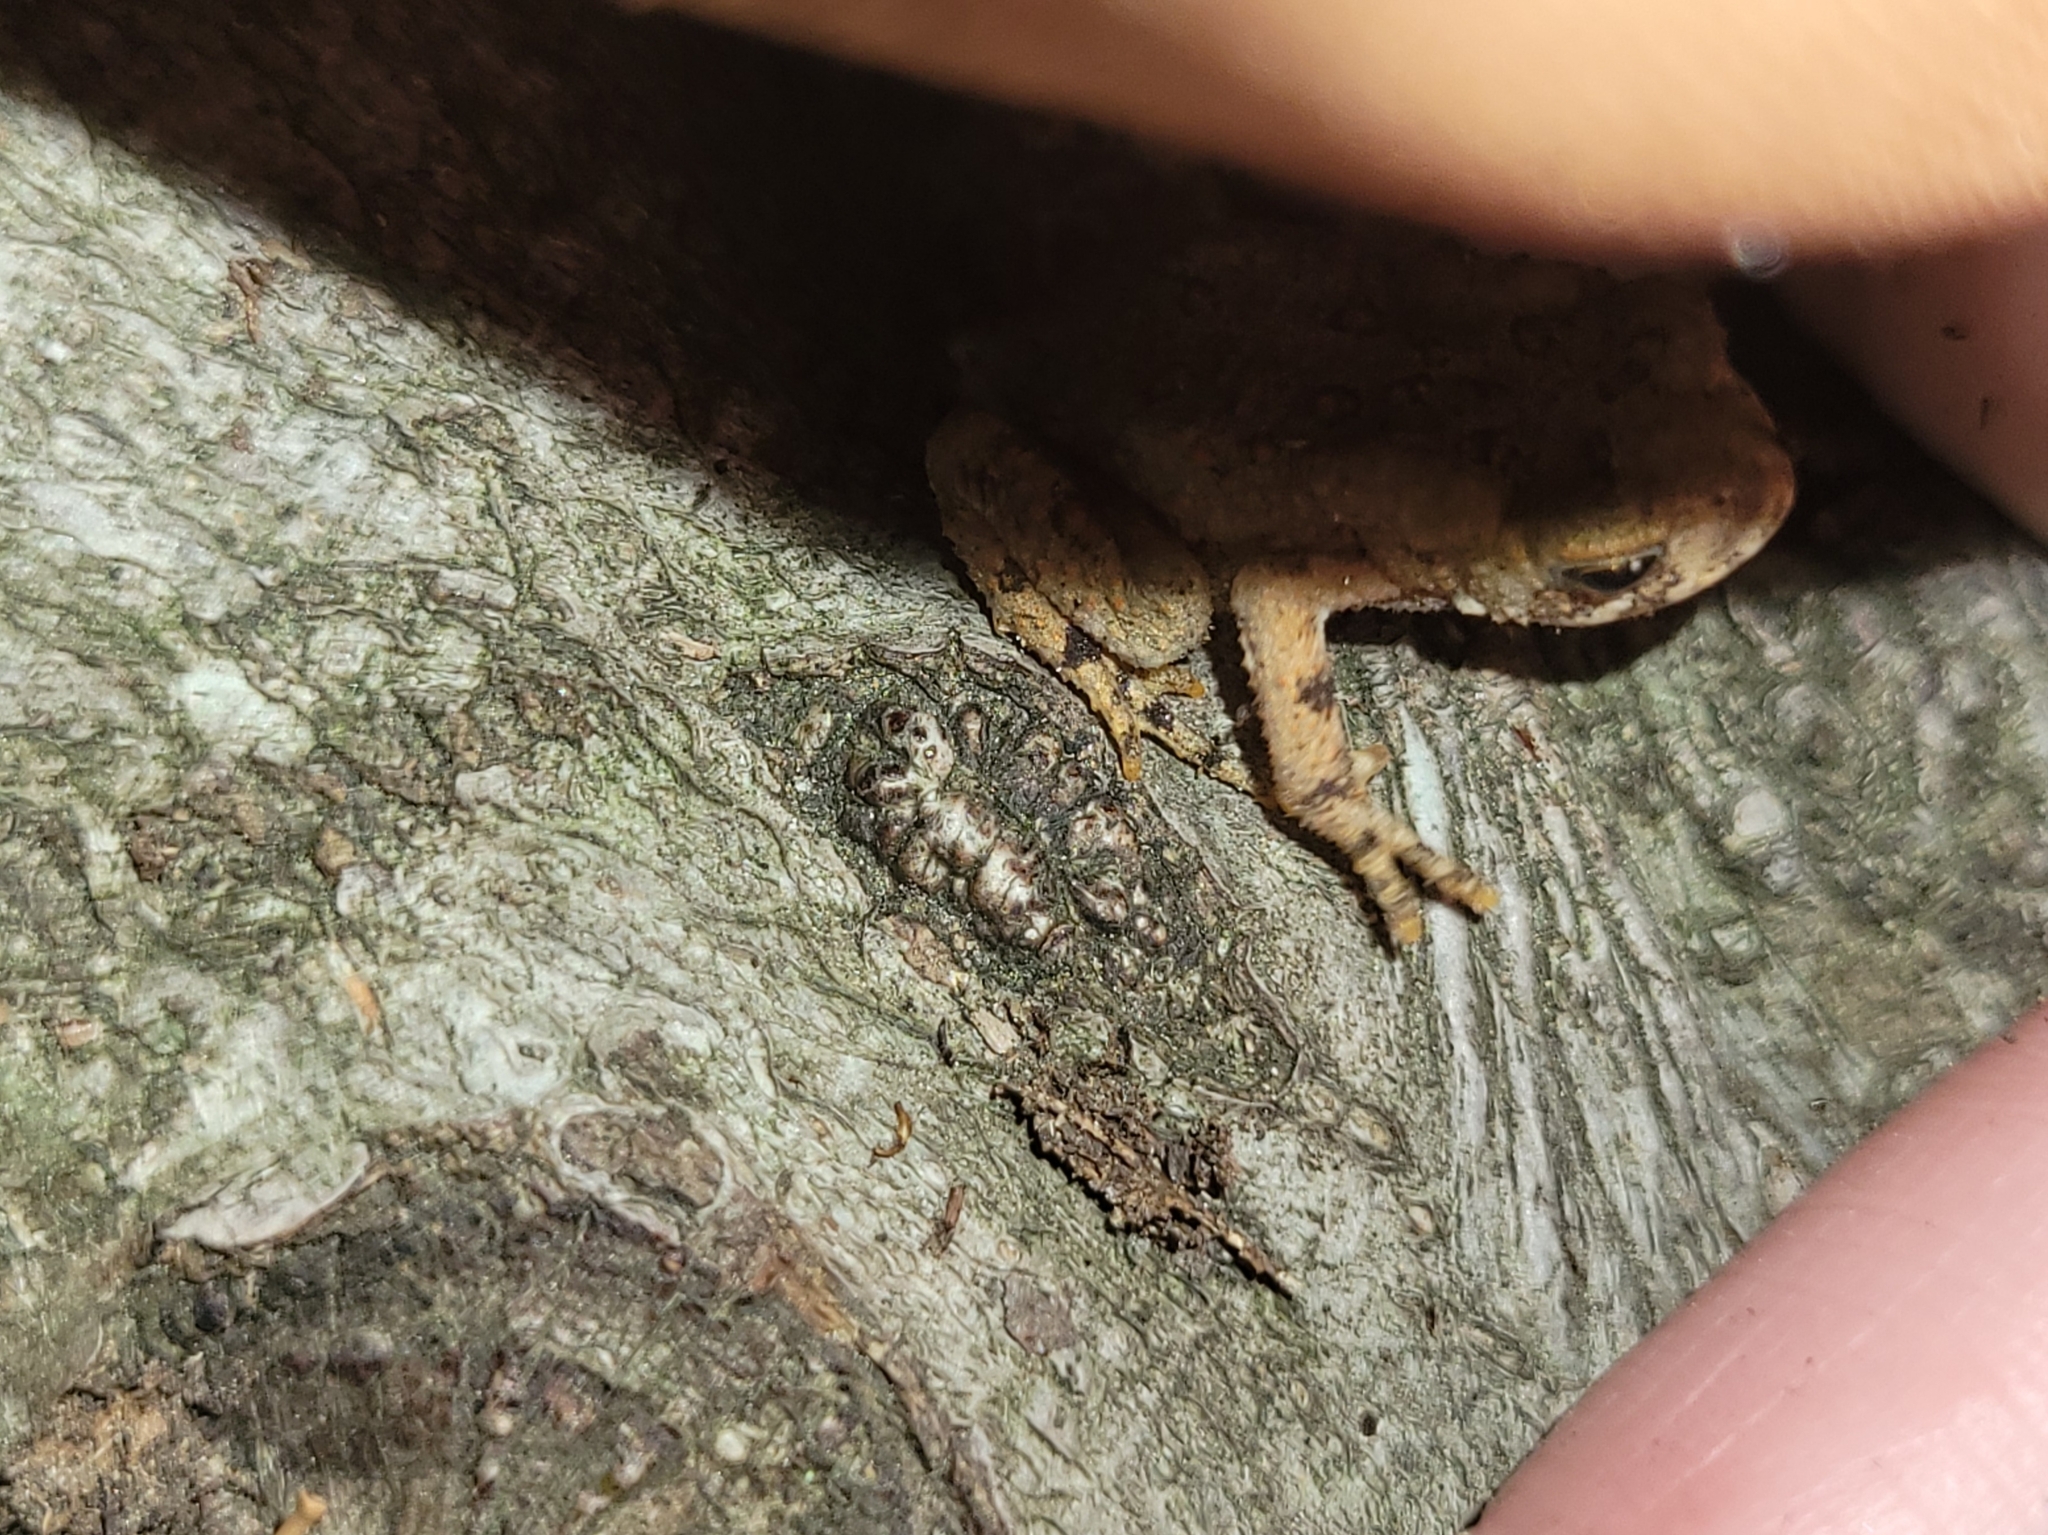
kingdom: Animalia
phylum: Chordata
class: Amphibia
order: Anura
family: Bufonidae
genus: Anaxyrus
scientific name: Anaxyrus americanus
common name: American toad
